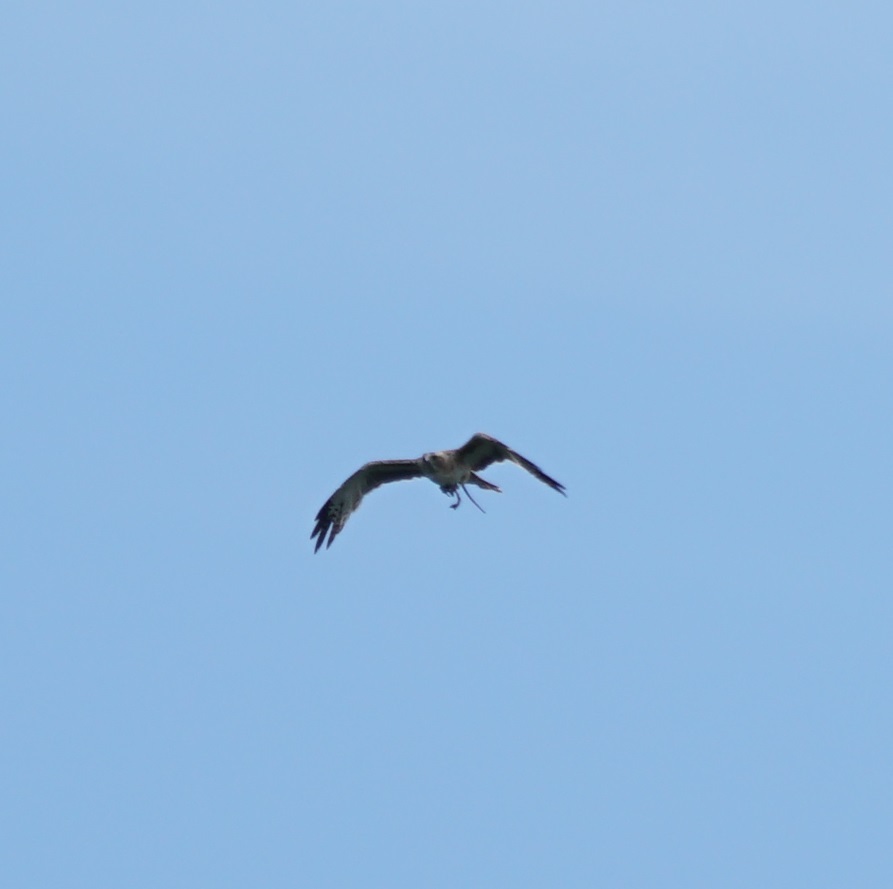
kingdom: Animalia
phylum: Chordata
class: Aves
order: Accipitriformes
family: Accipitridae
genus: Hieraaetus
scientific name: Hieraaetus morphnoides
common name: Little eagle
